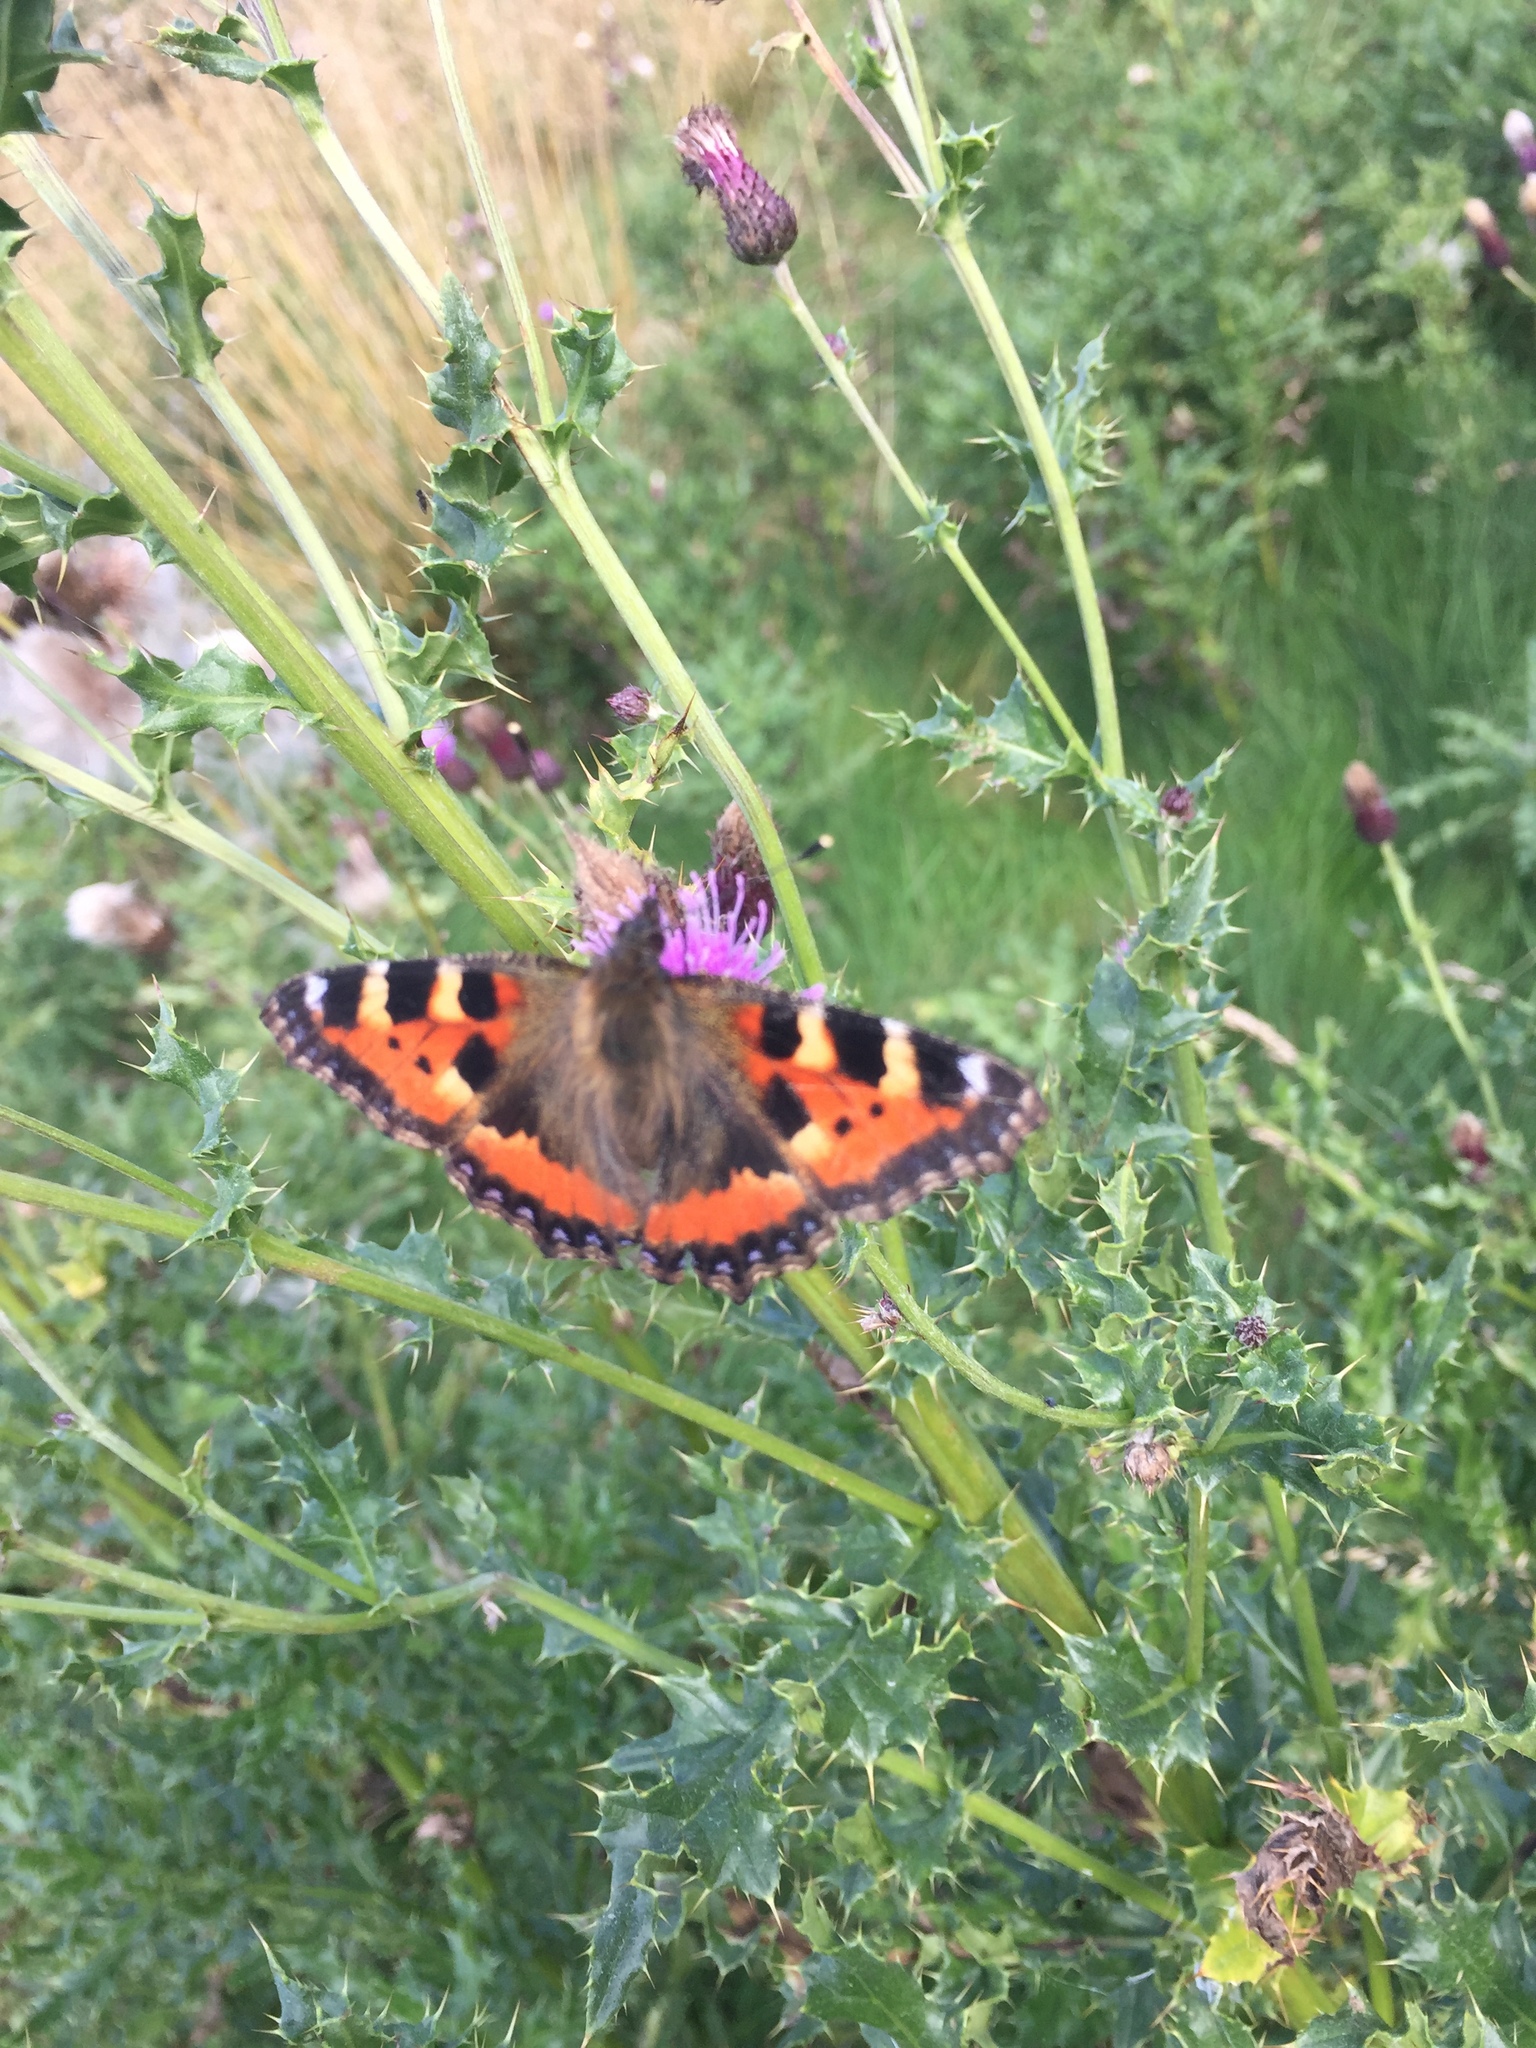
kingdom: Animalia
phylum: Arthropoda
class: Insecta
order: Lepidoptera
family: Nymphalidae
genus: Aglais
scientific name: Aglais urticae
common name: Small tortoiseshell
